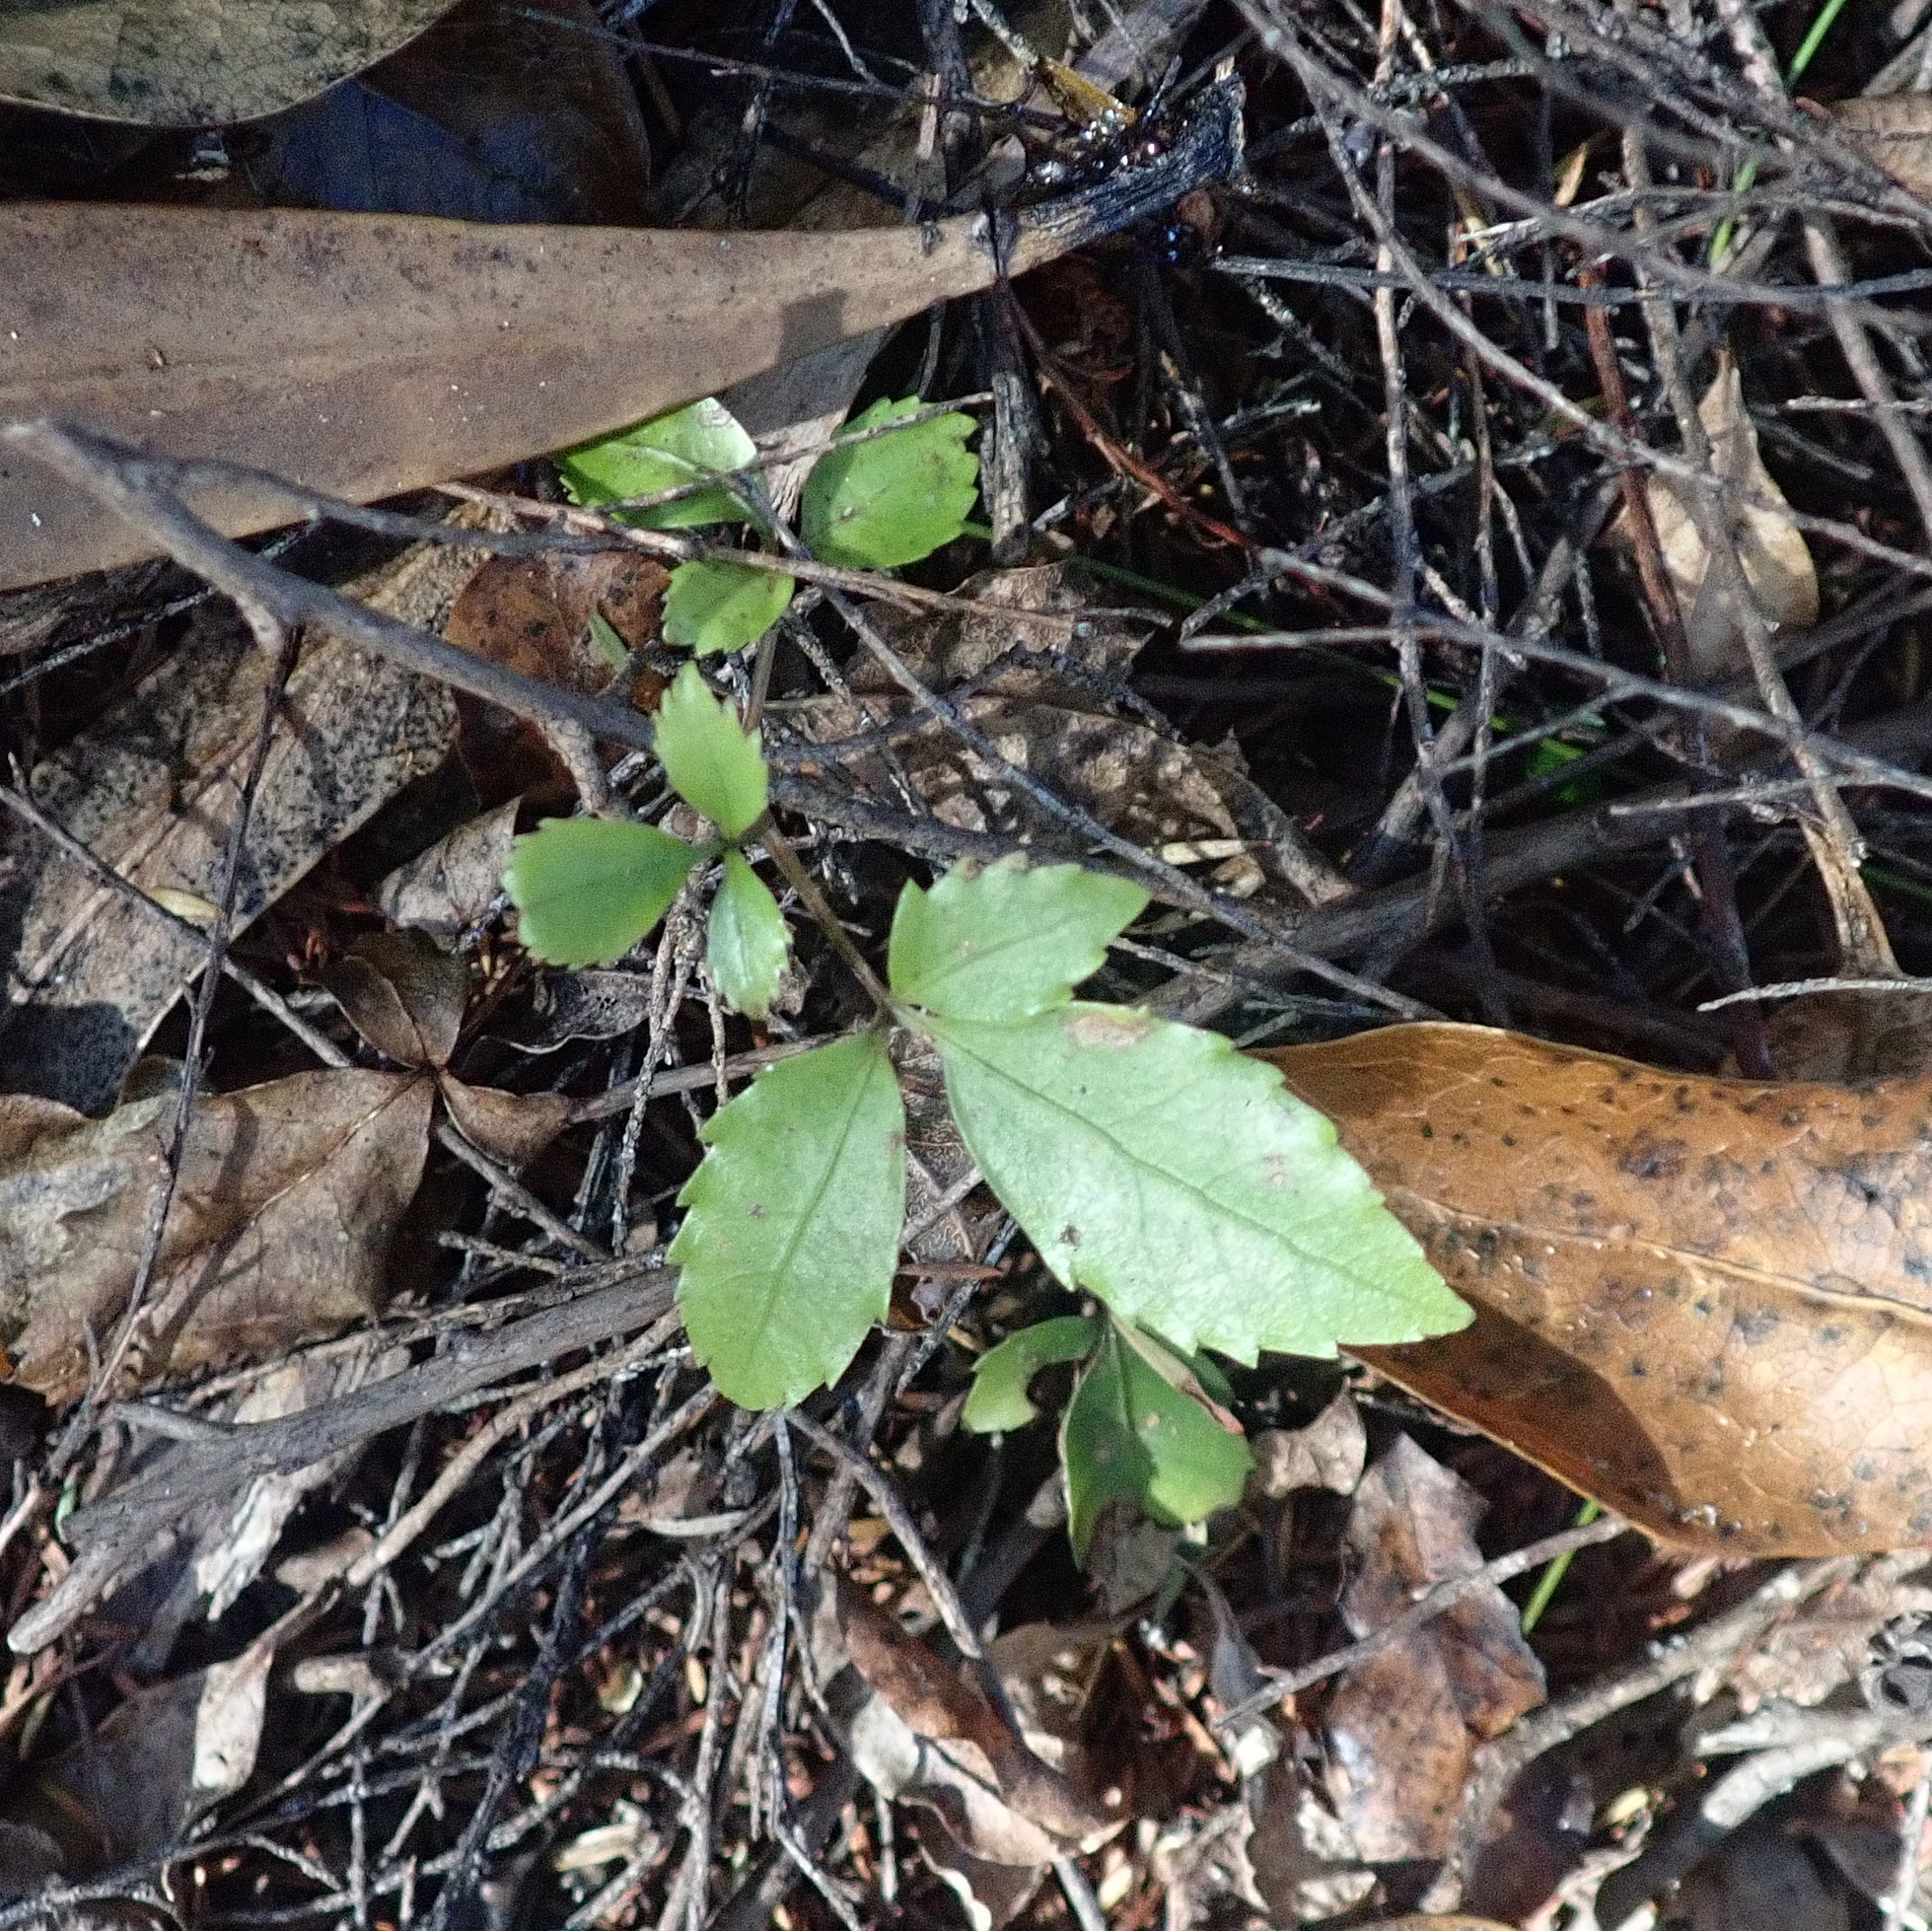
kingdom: Plantae
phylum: Tracheophyta
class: Magnoliopsida
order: Apiales
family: Araliaceae
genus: Neopanax
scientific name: Neopanax arboreus
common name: Five-fingers
